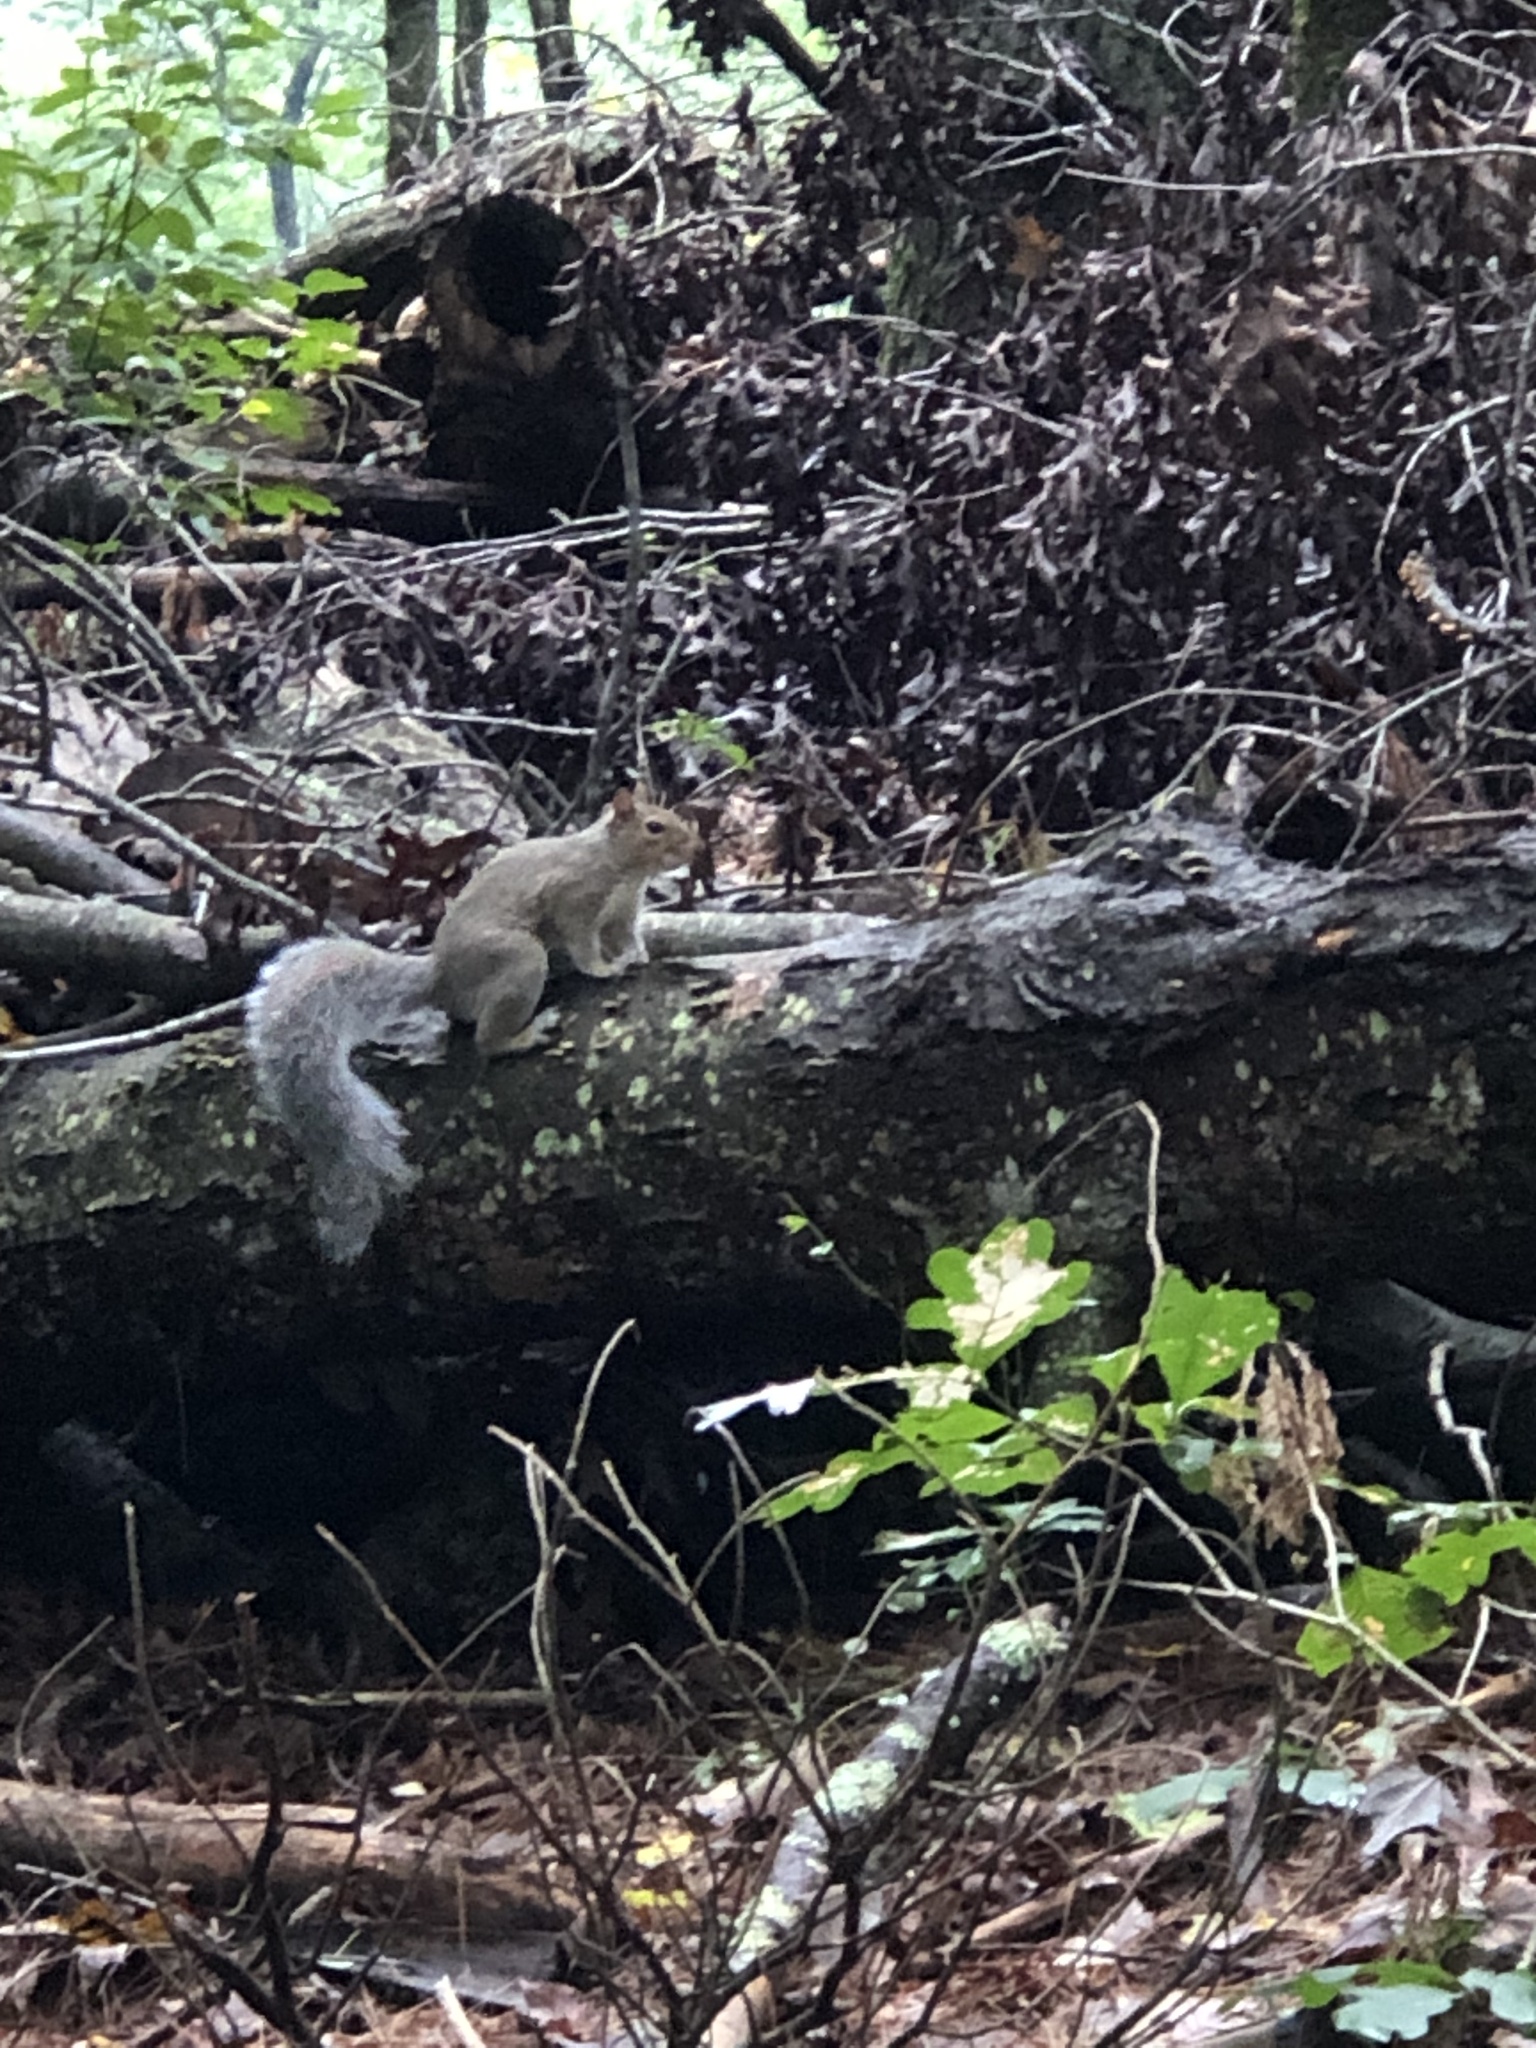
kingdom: Animalia
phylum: Chordata
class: Mammalia
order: Rodentia
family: Sciuridae
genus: Sciurus
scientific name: Sciurus carolinensis
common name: Eastern gray squirrel
